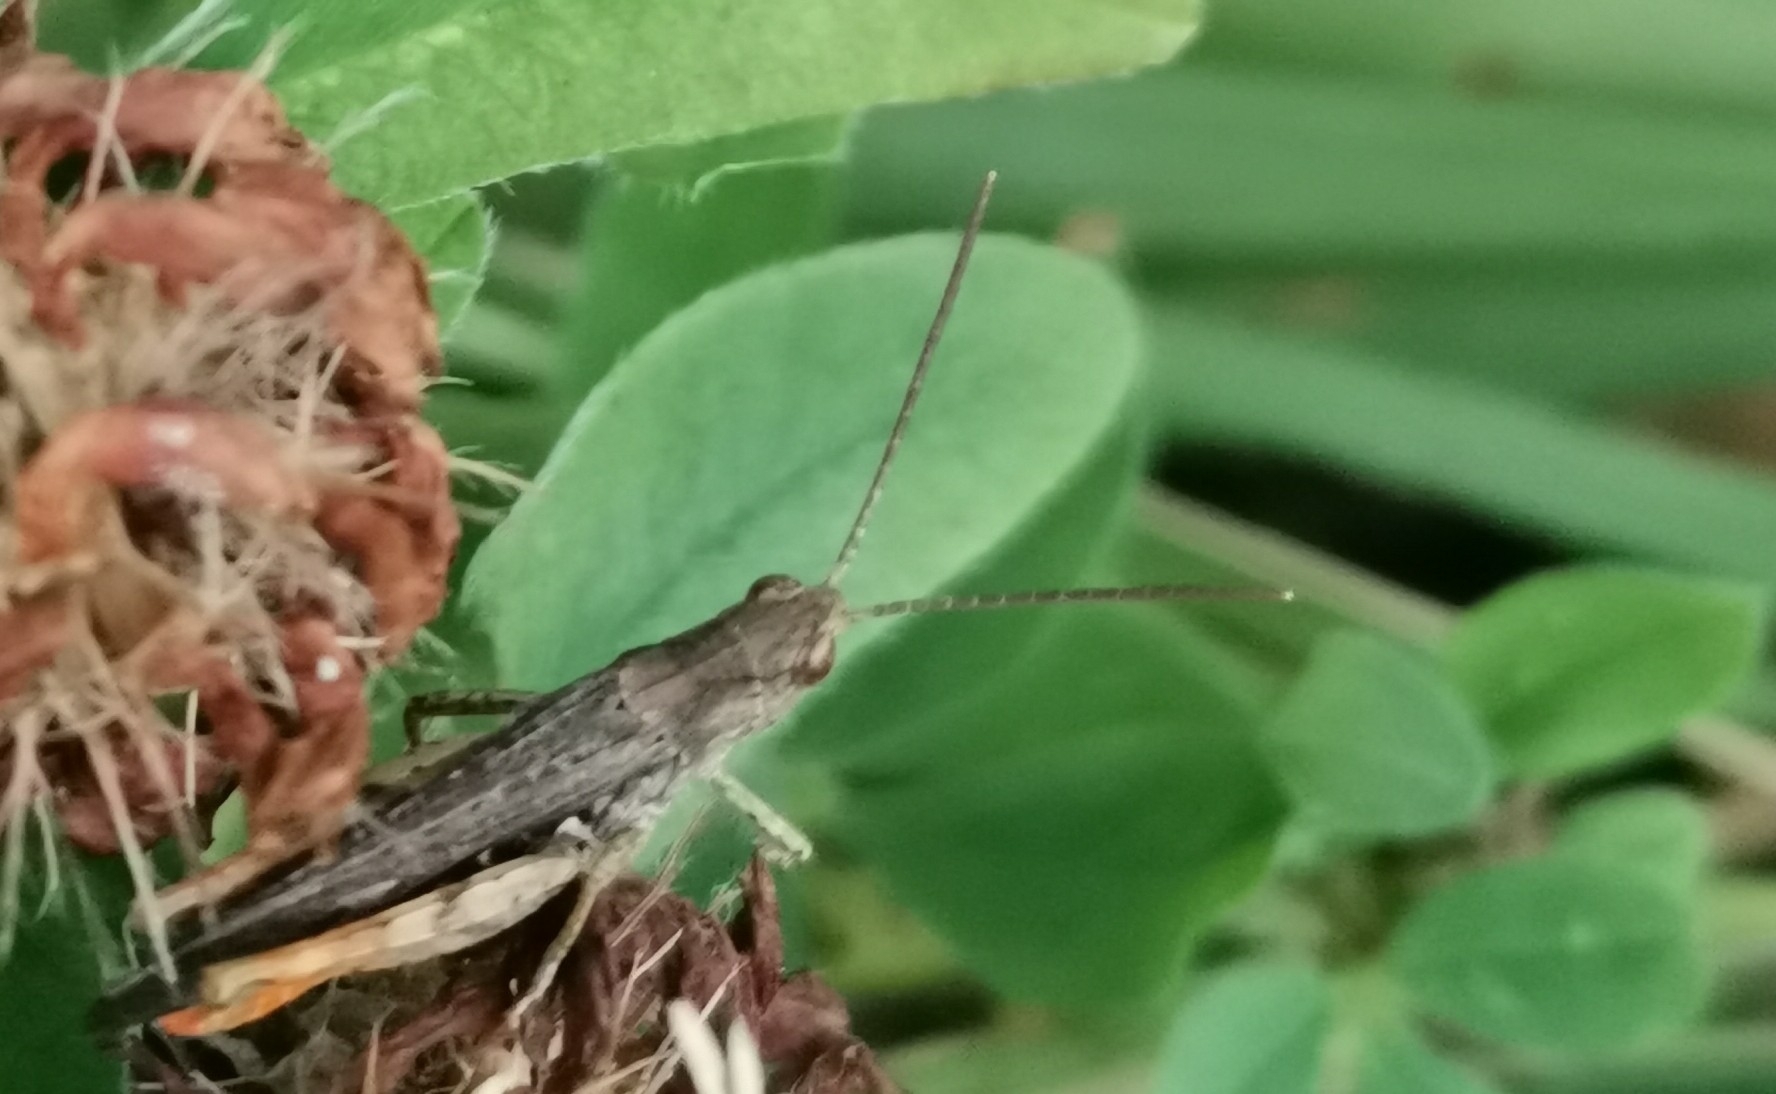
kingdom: Animalia
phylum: Arthropoda
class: Insecta
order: Orthoptera
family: Acrididae
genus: Chorthippus
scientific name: Chorthippus brunneus
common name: Field grasshopper
